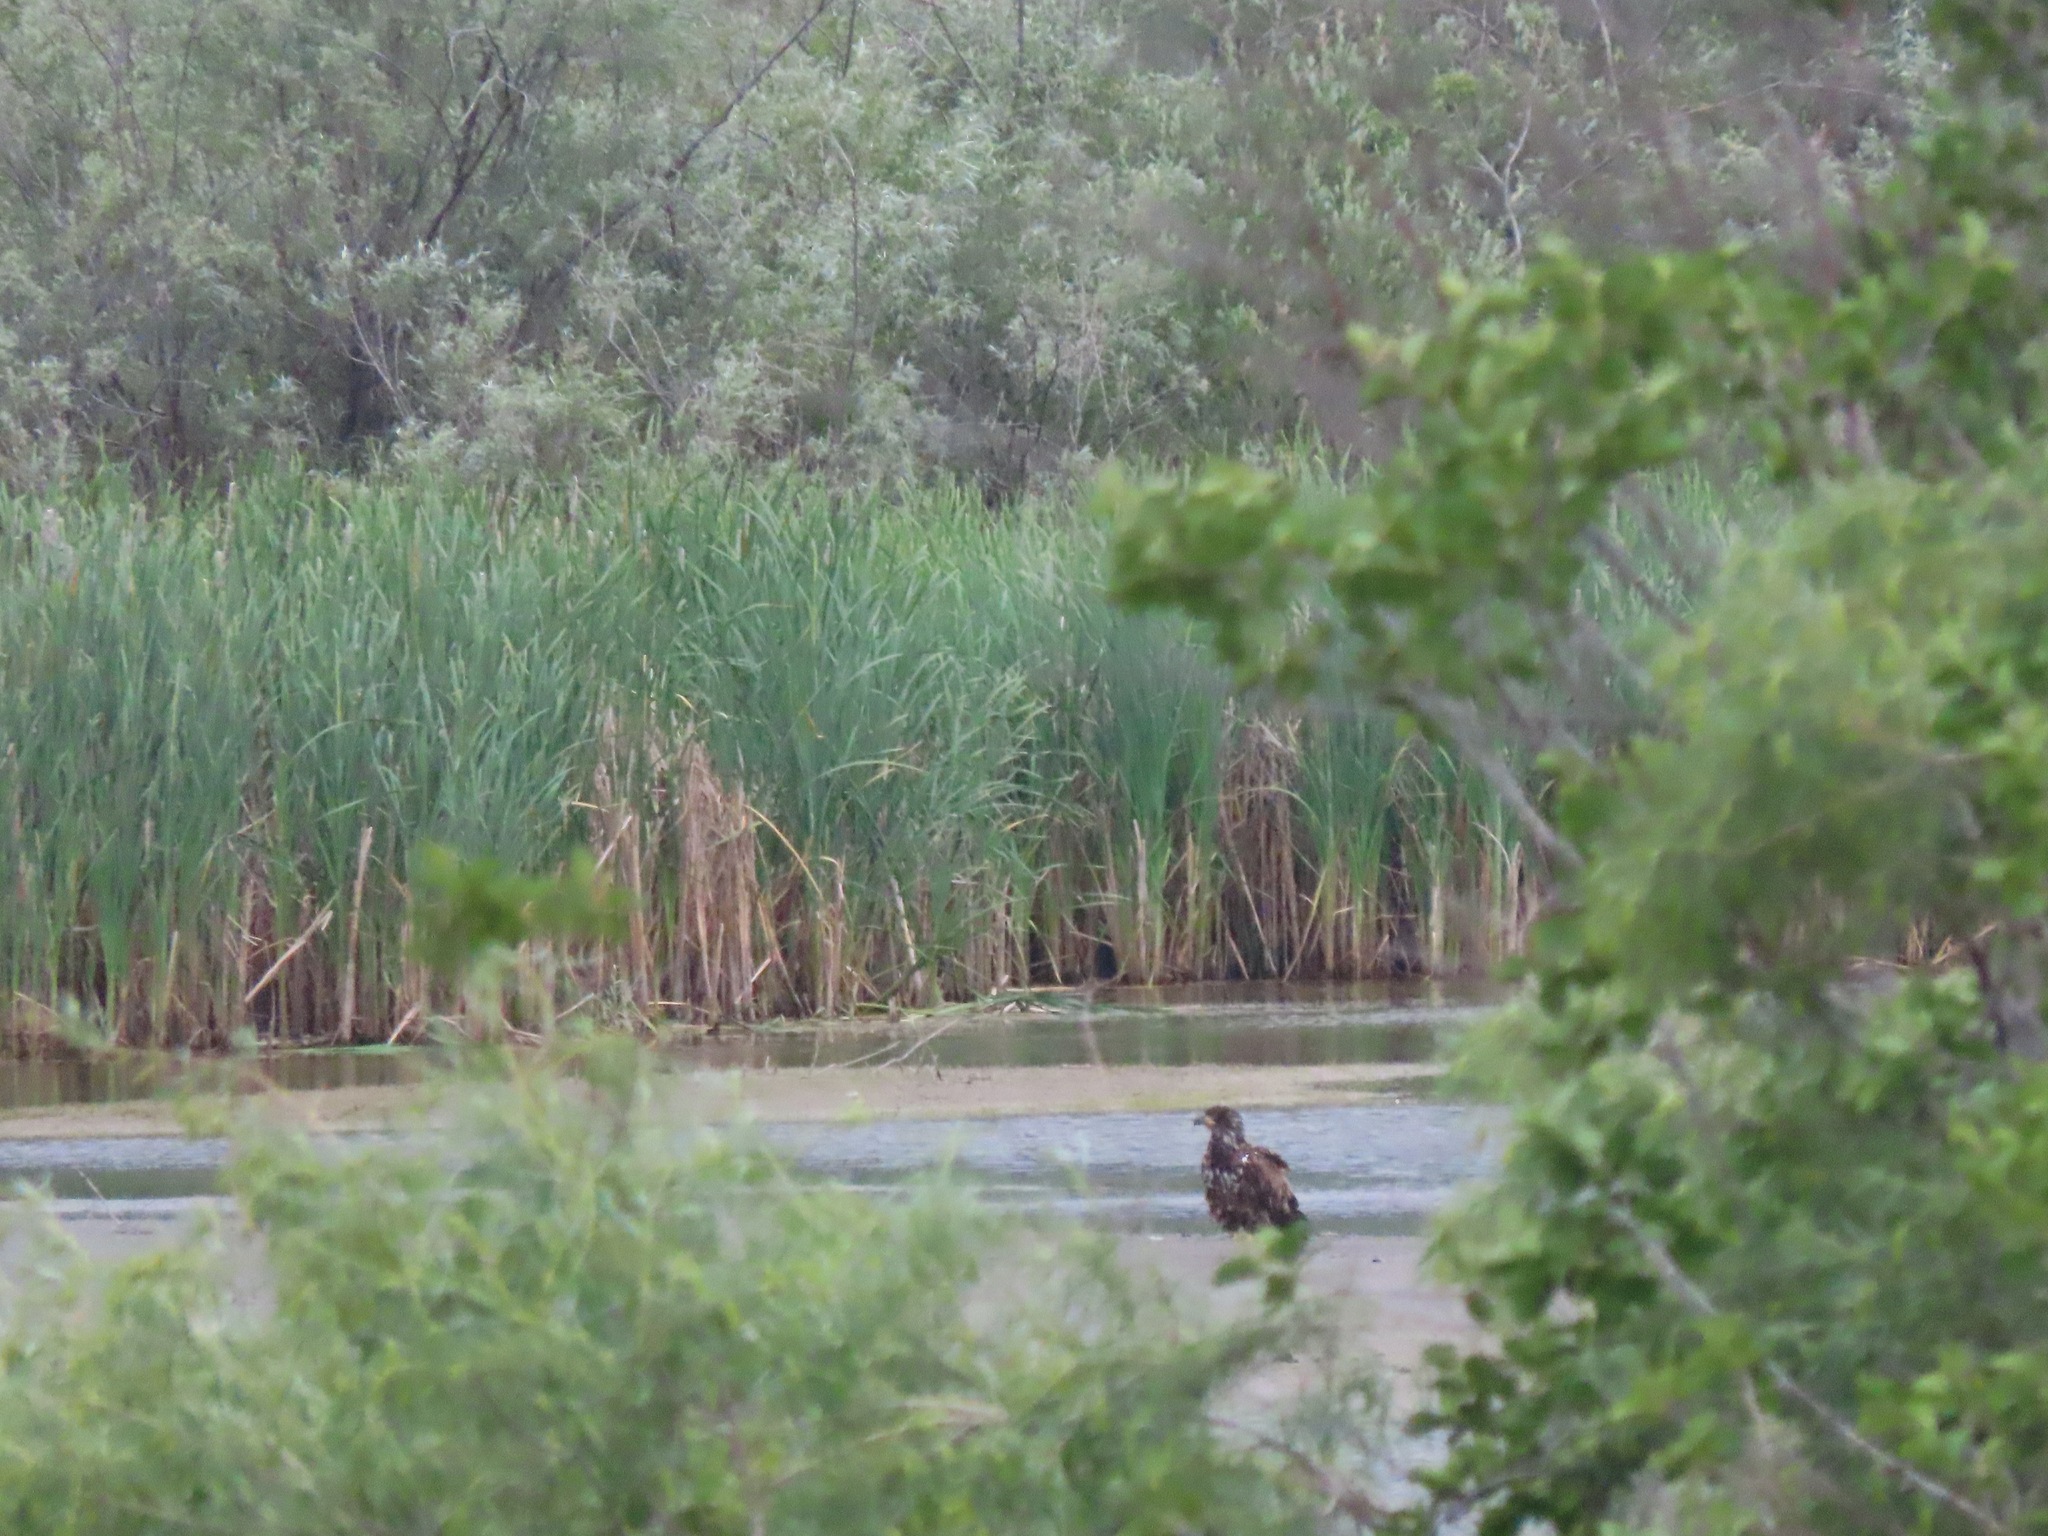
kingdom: Animalia
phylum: Chordata
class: Aves
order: Accipitriformes
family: Accipitridae
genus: Haliaeetus
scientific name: Haliaeetus leucocephalus
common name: Bald eagle
